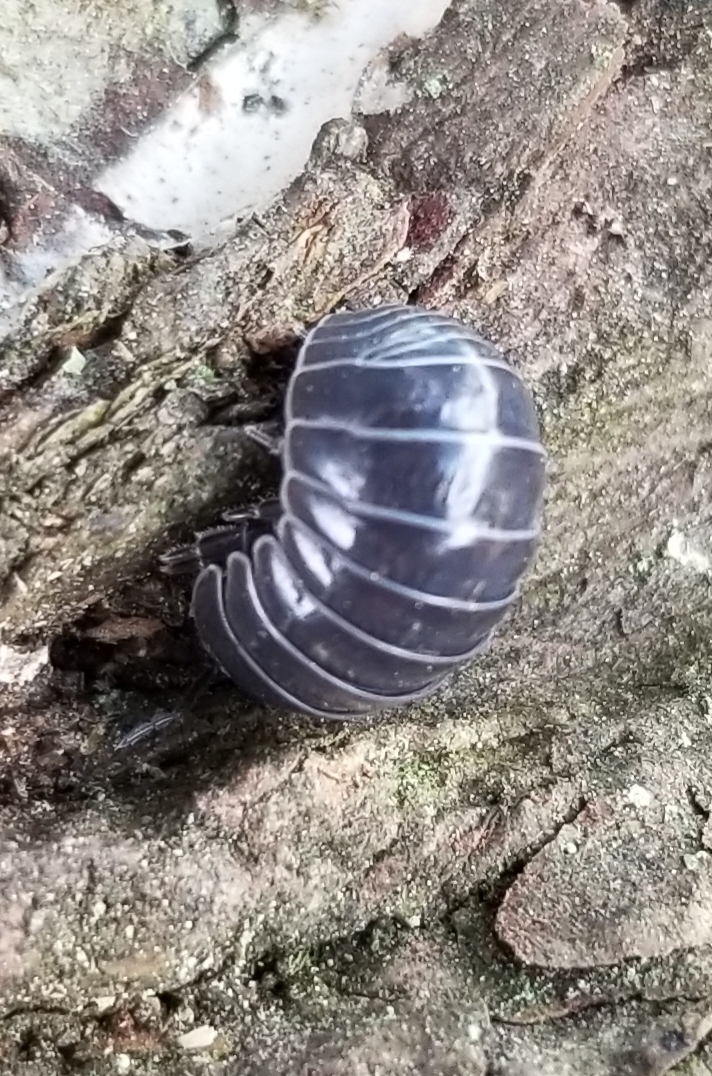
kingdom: Animalia
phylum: Arthropoda
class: Malacostraca
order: Isopoda
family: Armadillidiidae
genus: Armadillidium
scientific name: Armadillidium vulgare
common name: Common pill woodlouse
